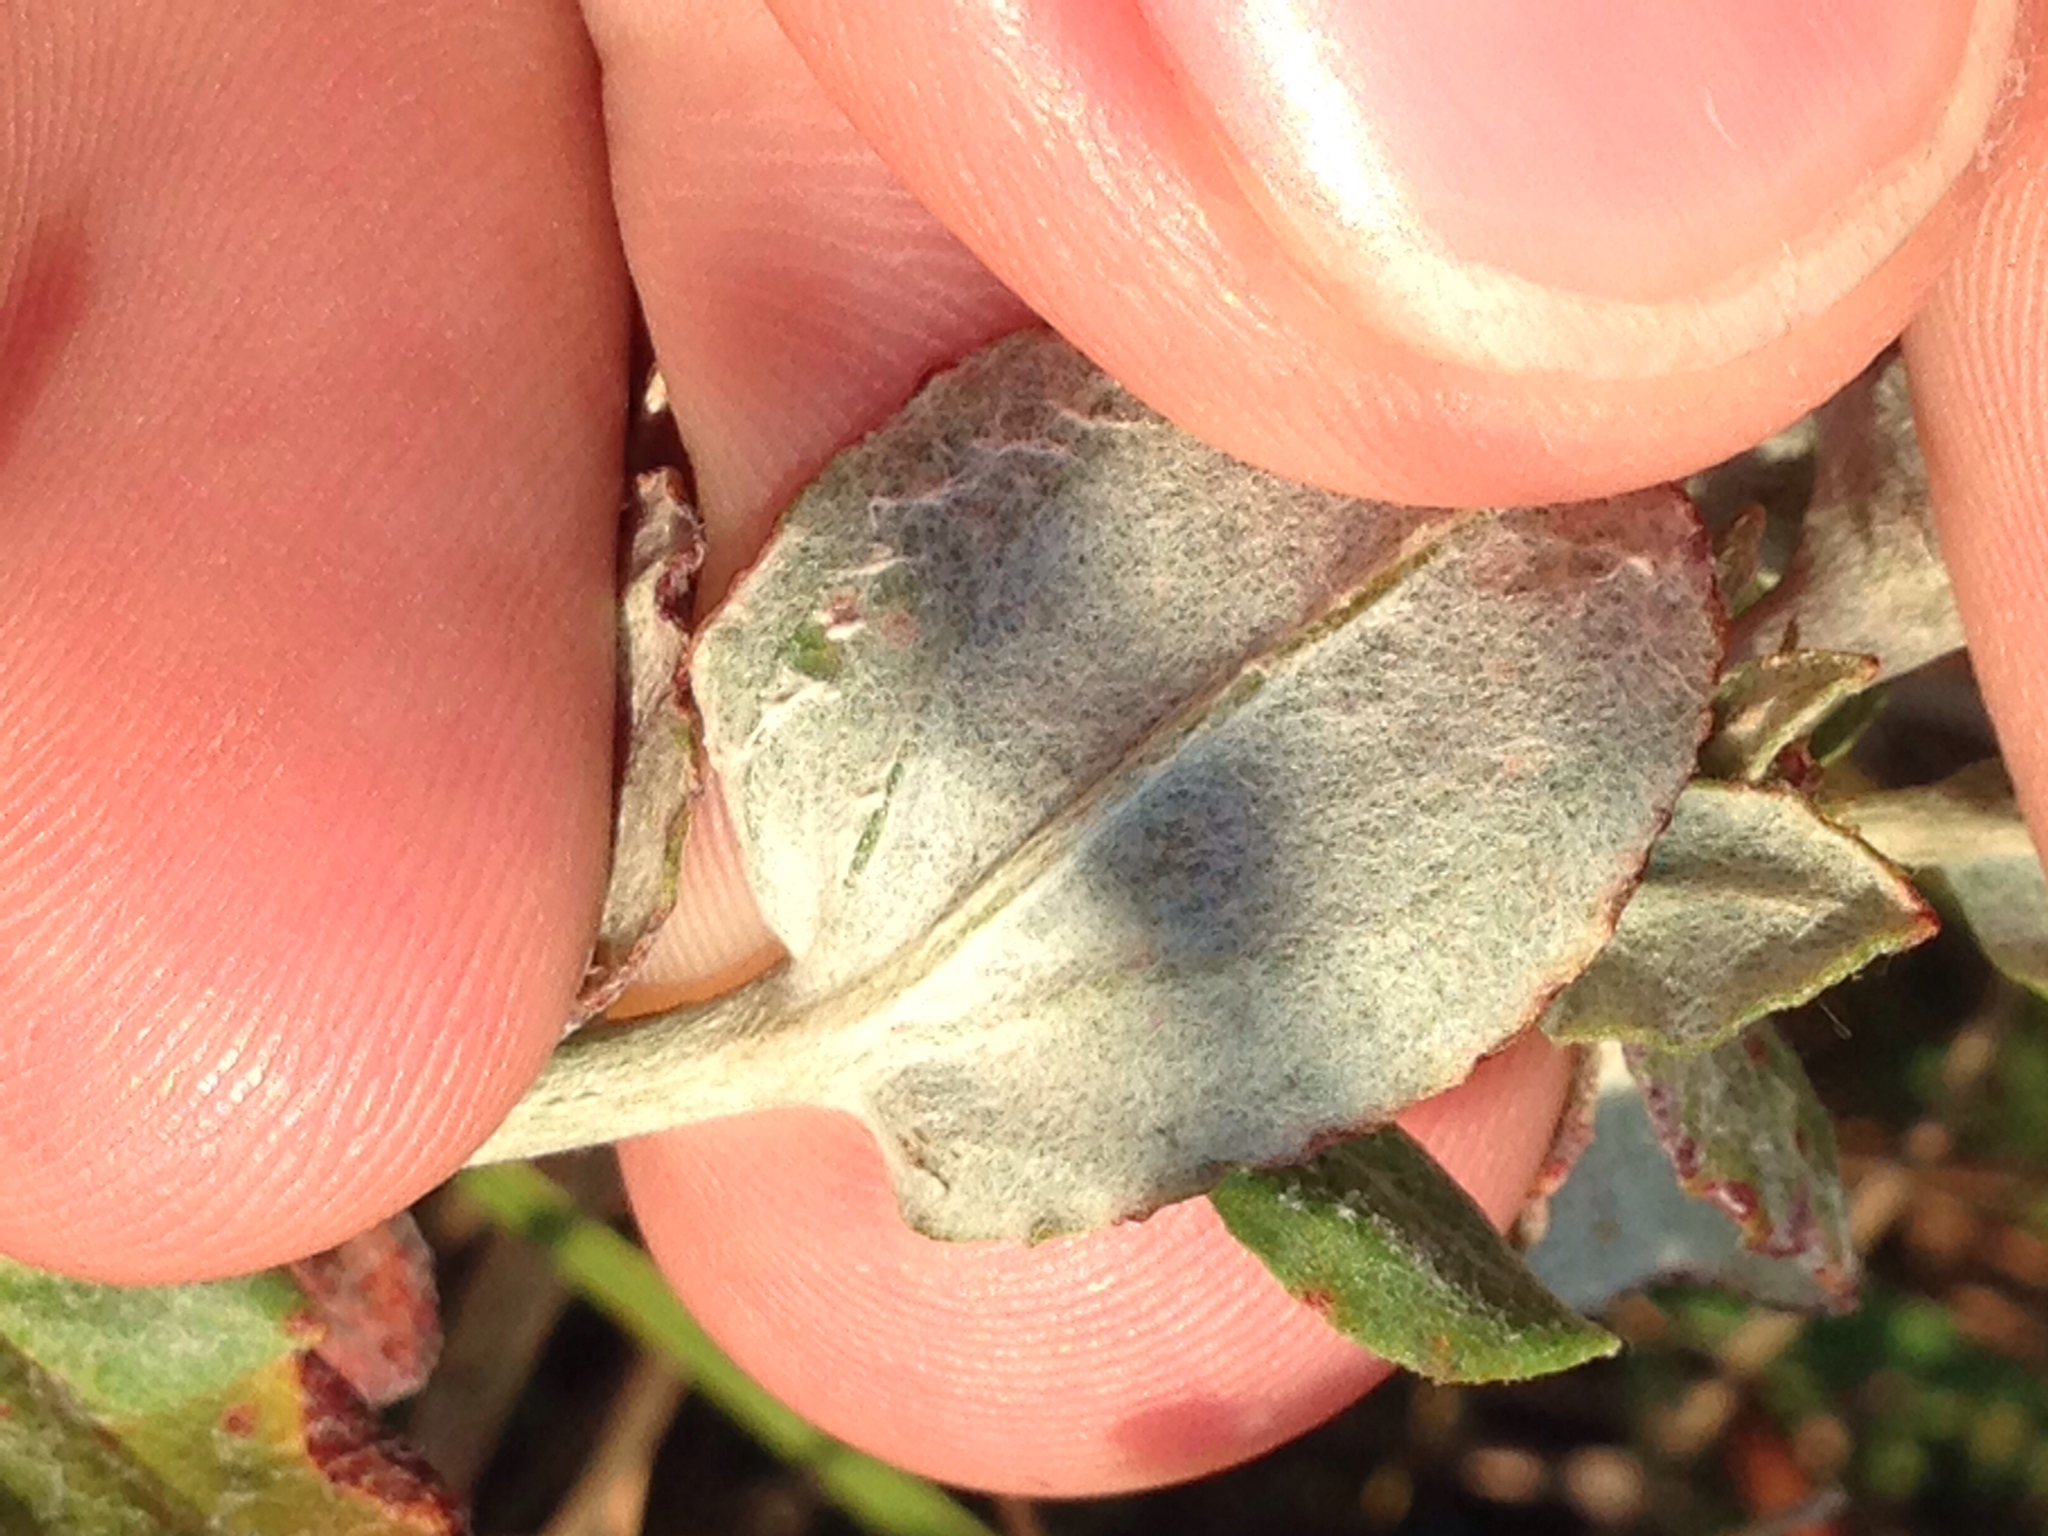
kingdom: Plantae
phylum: Tracheophyta
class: Magnoliopsida
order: Caryophyllales
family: Polygonaceae
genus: Eriogonum
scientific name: Eriogonum multiflorum
